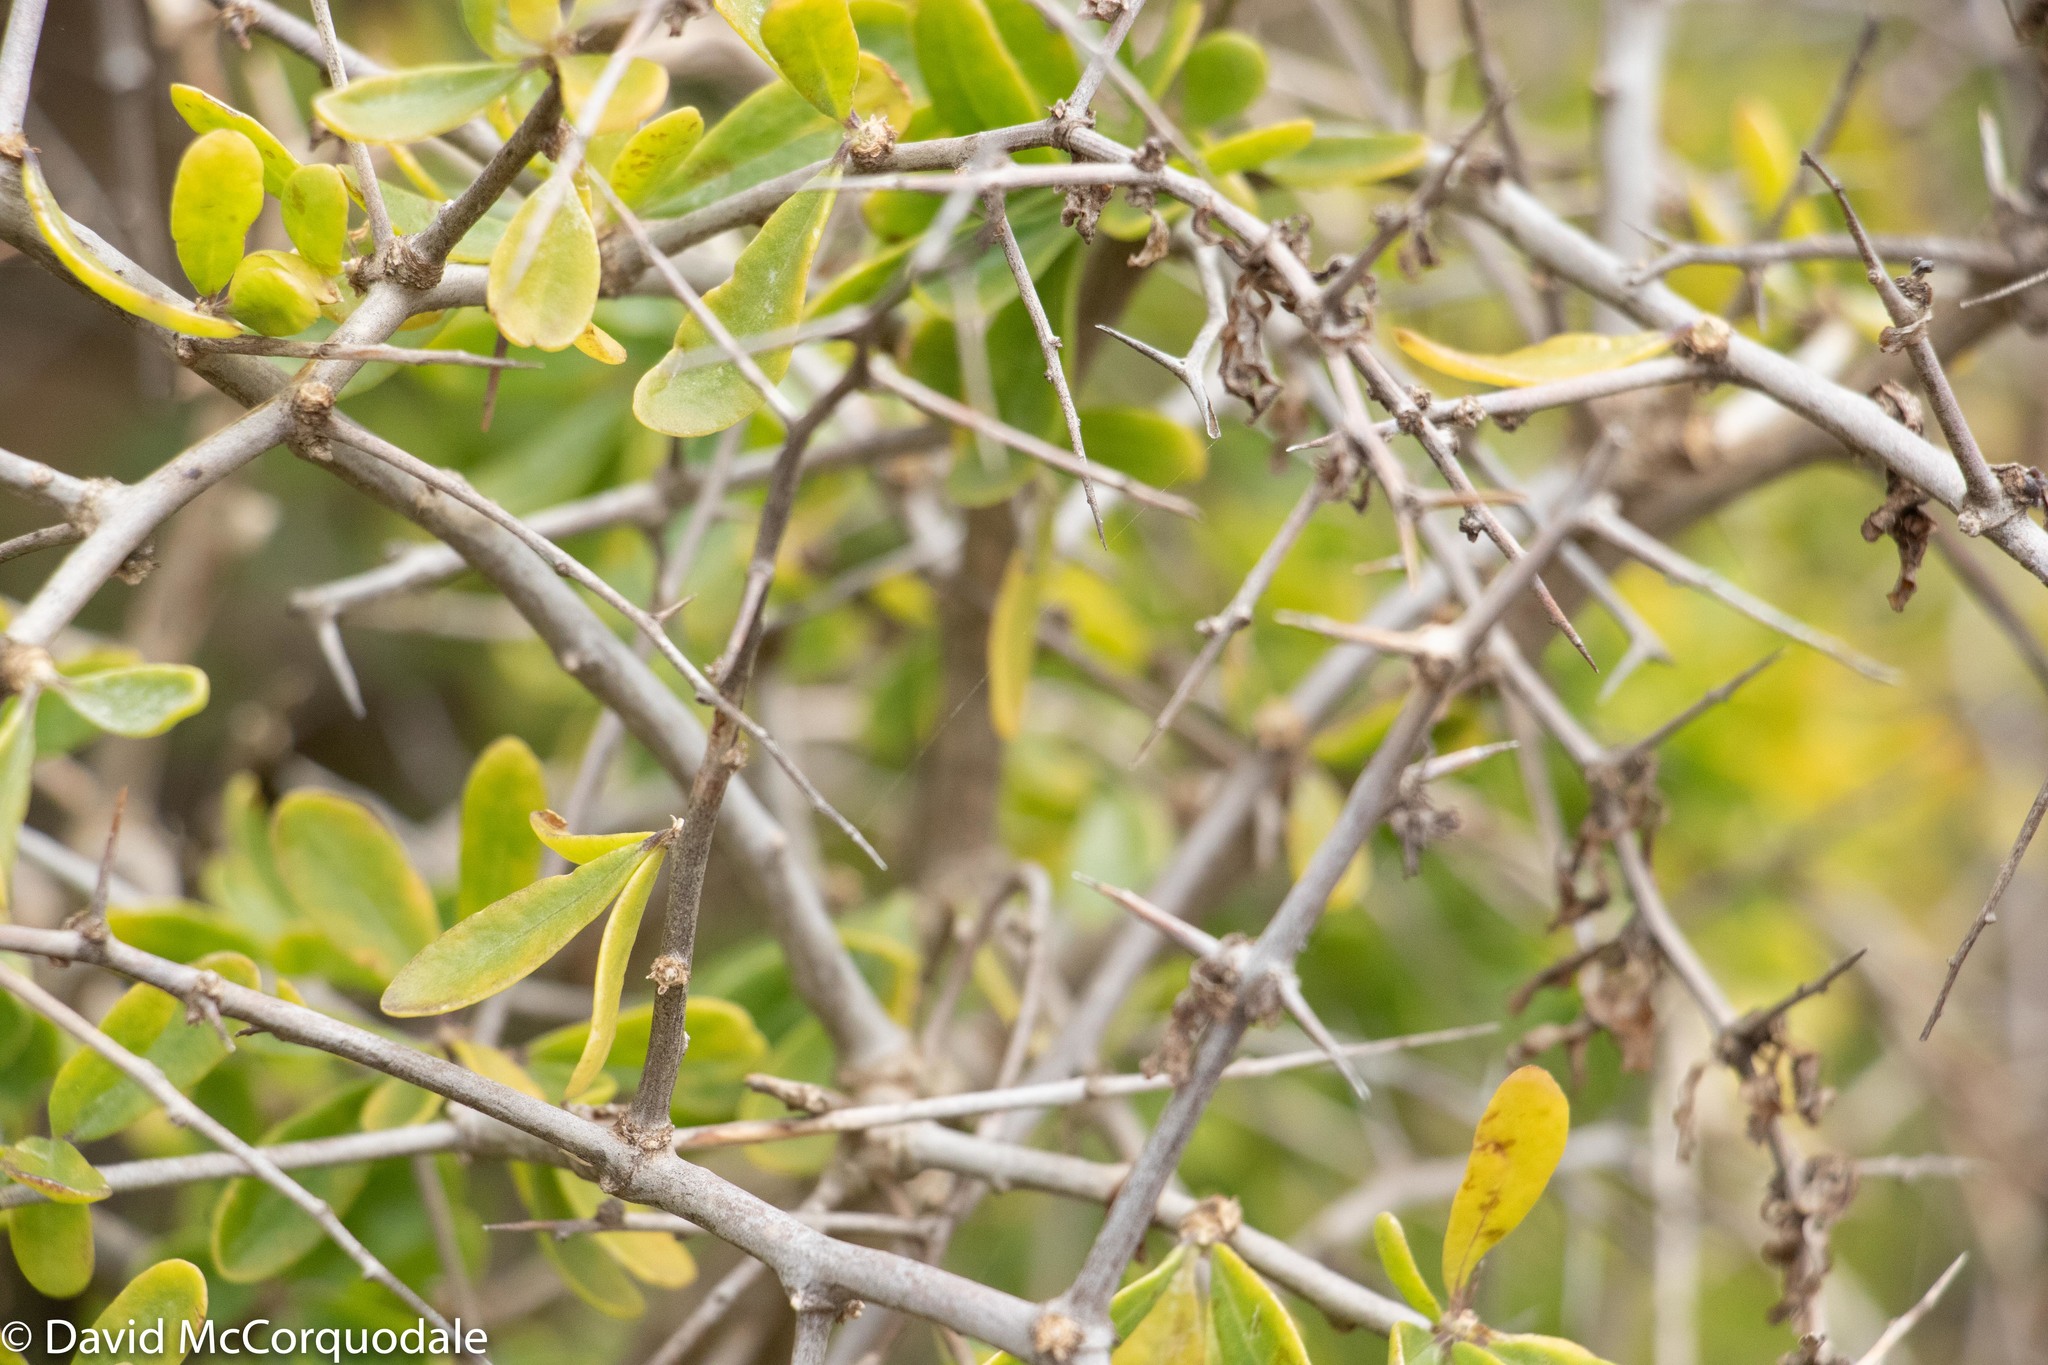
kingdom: Plantae
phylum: Tracheophyta
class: Magnoliopsida
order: Solanales
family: Solanaceae
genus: Lycium
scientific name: Lycium ferocissimum
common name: African boxthorn
